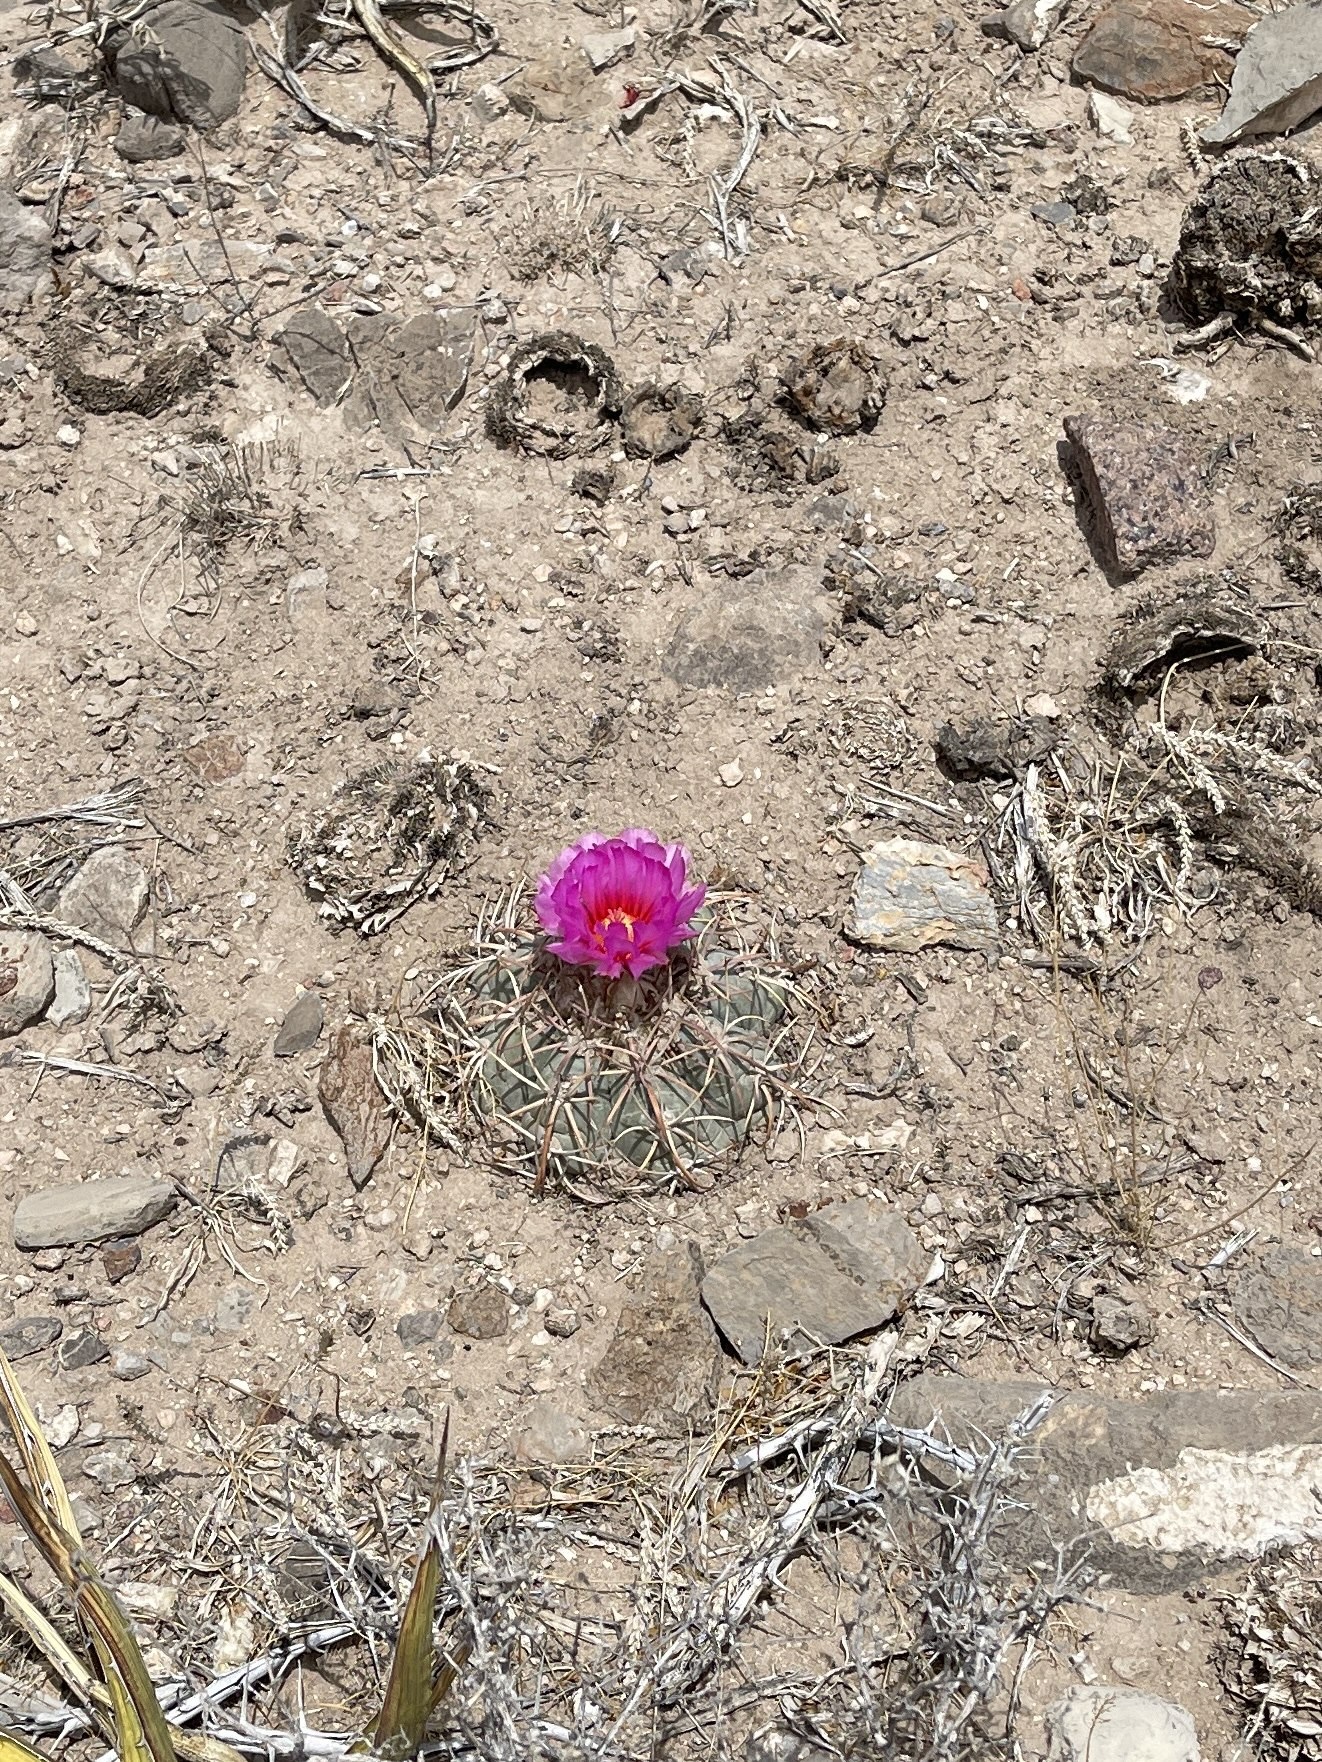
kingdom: Plantae
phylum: Tracheophyta
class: Magnoliopsida
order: Caryophyllales
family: Cactaceae
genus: Echinocactus
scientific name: Echinocactus horizonthalonius
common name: Devilshead
